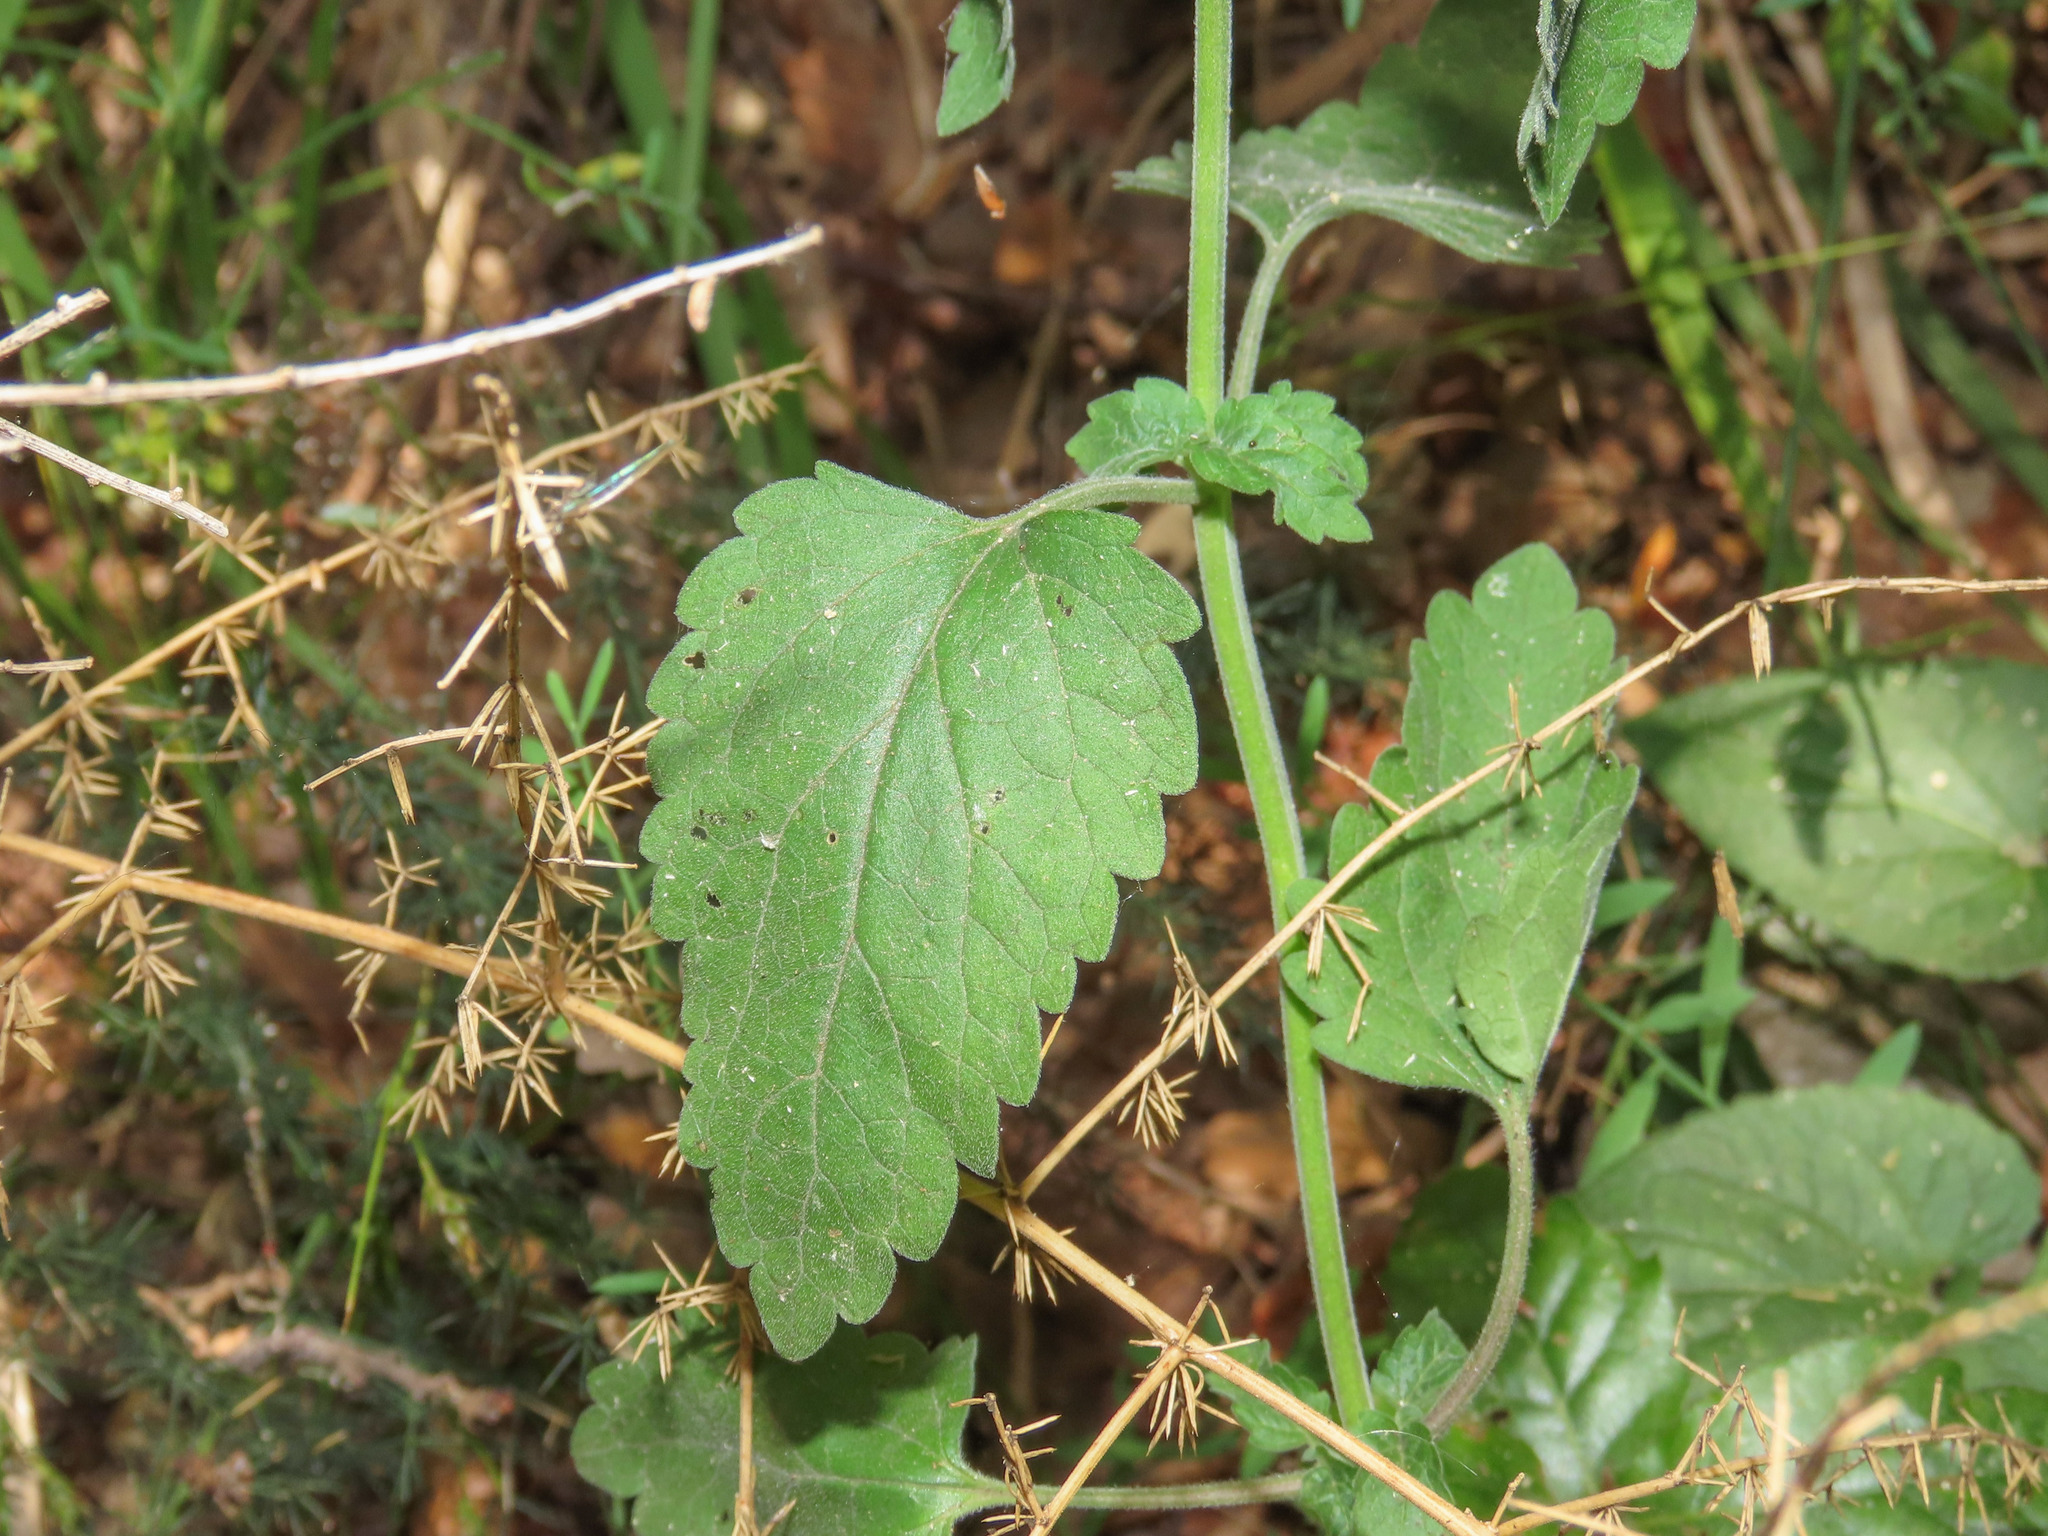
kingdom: Plantae
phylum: Tracheophyta
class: Magnoliopsida
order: Lamiales
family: Lamiaceae
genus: Scutellaria
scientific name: Scutellaria columnae
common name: Large skullcap
